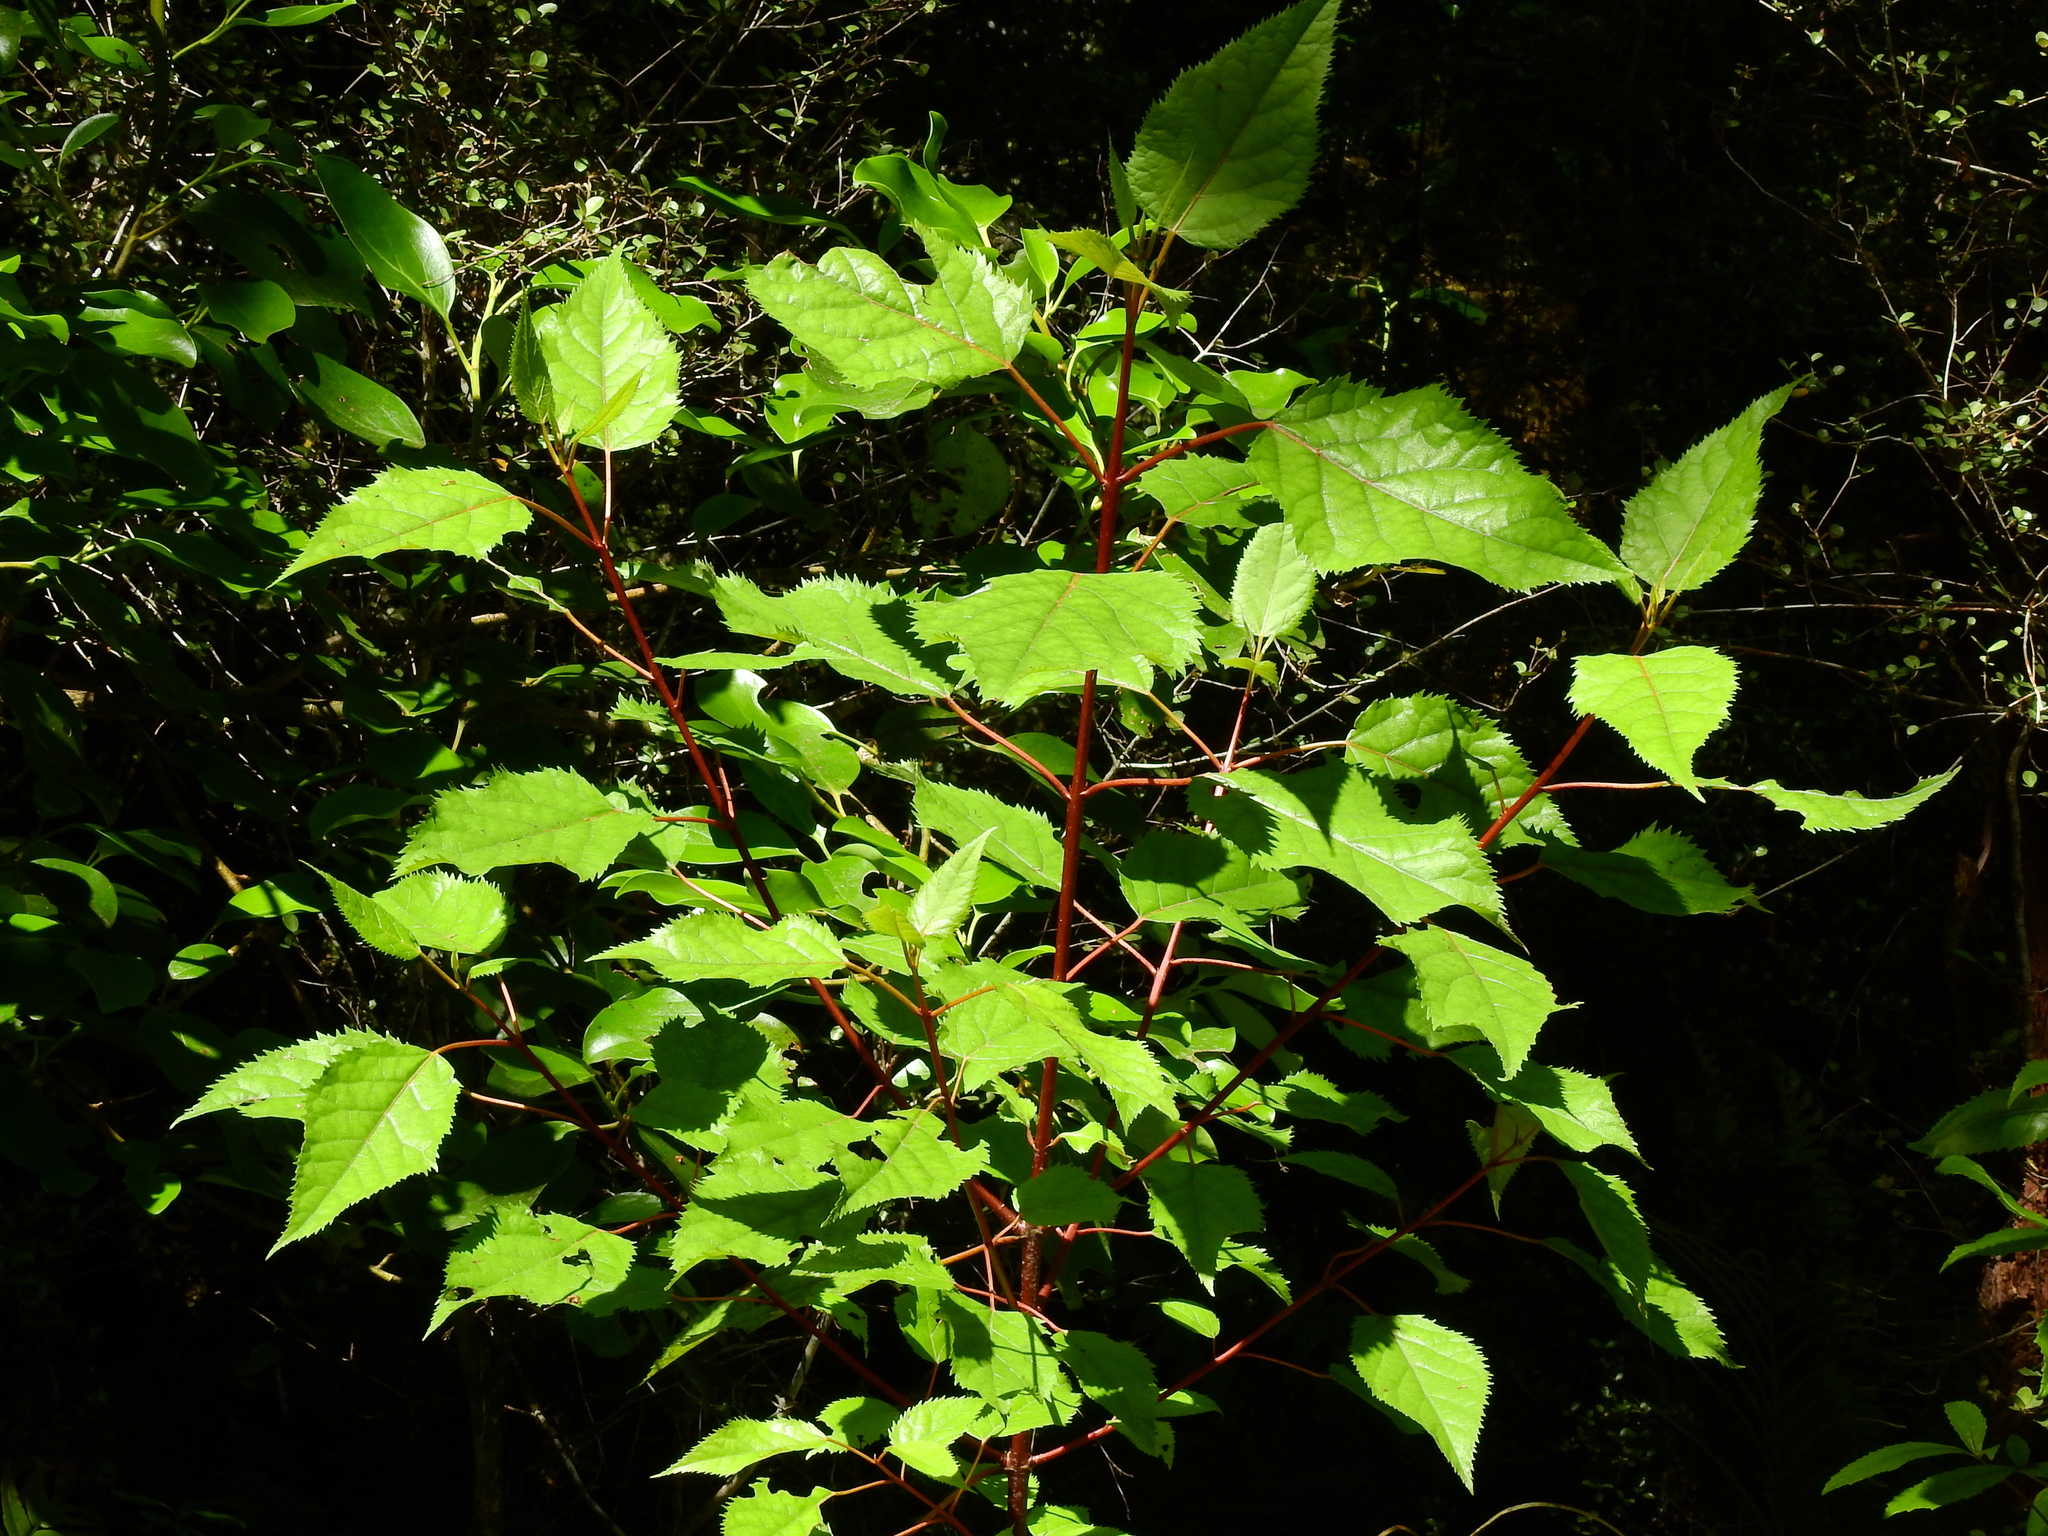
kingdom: Plantae
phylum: Tracheophyta
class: Magnoliopsida
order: Oxalidales
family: Elaeocarpaceae
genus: Aristotelia
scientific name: Aristotelia serrata
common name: New zealand wineberry
